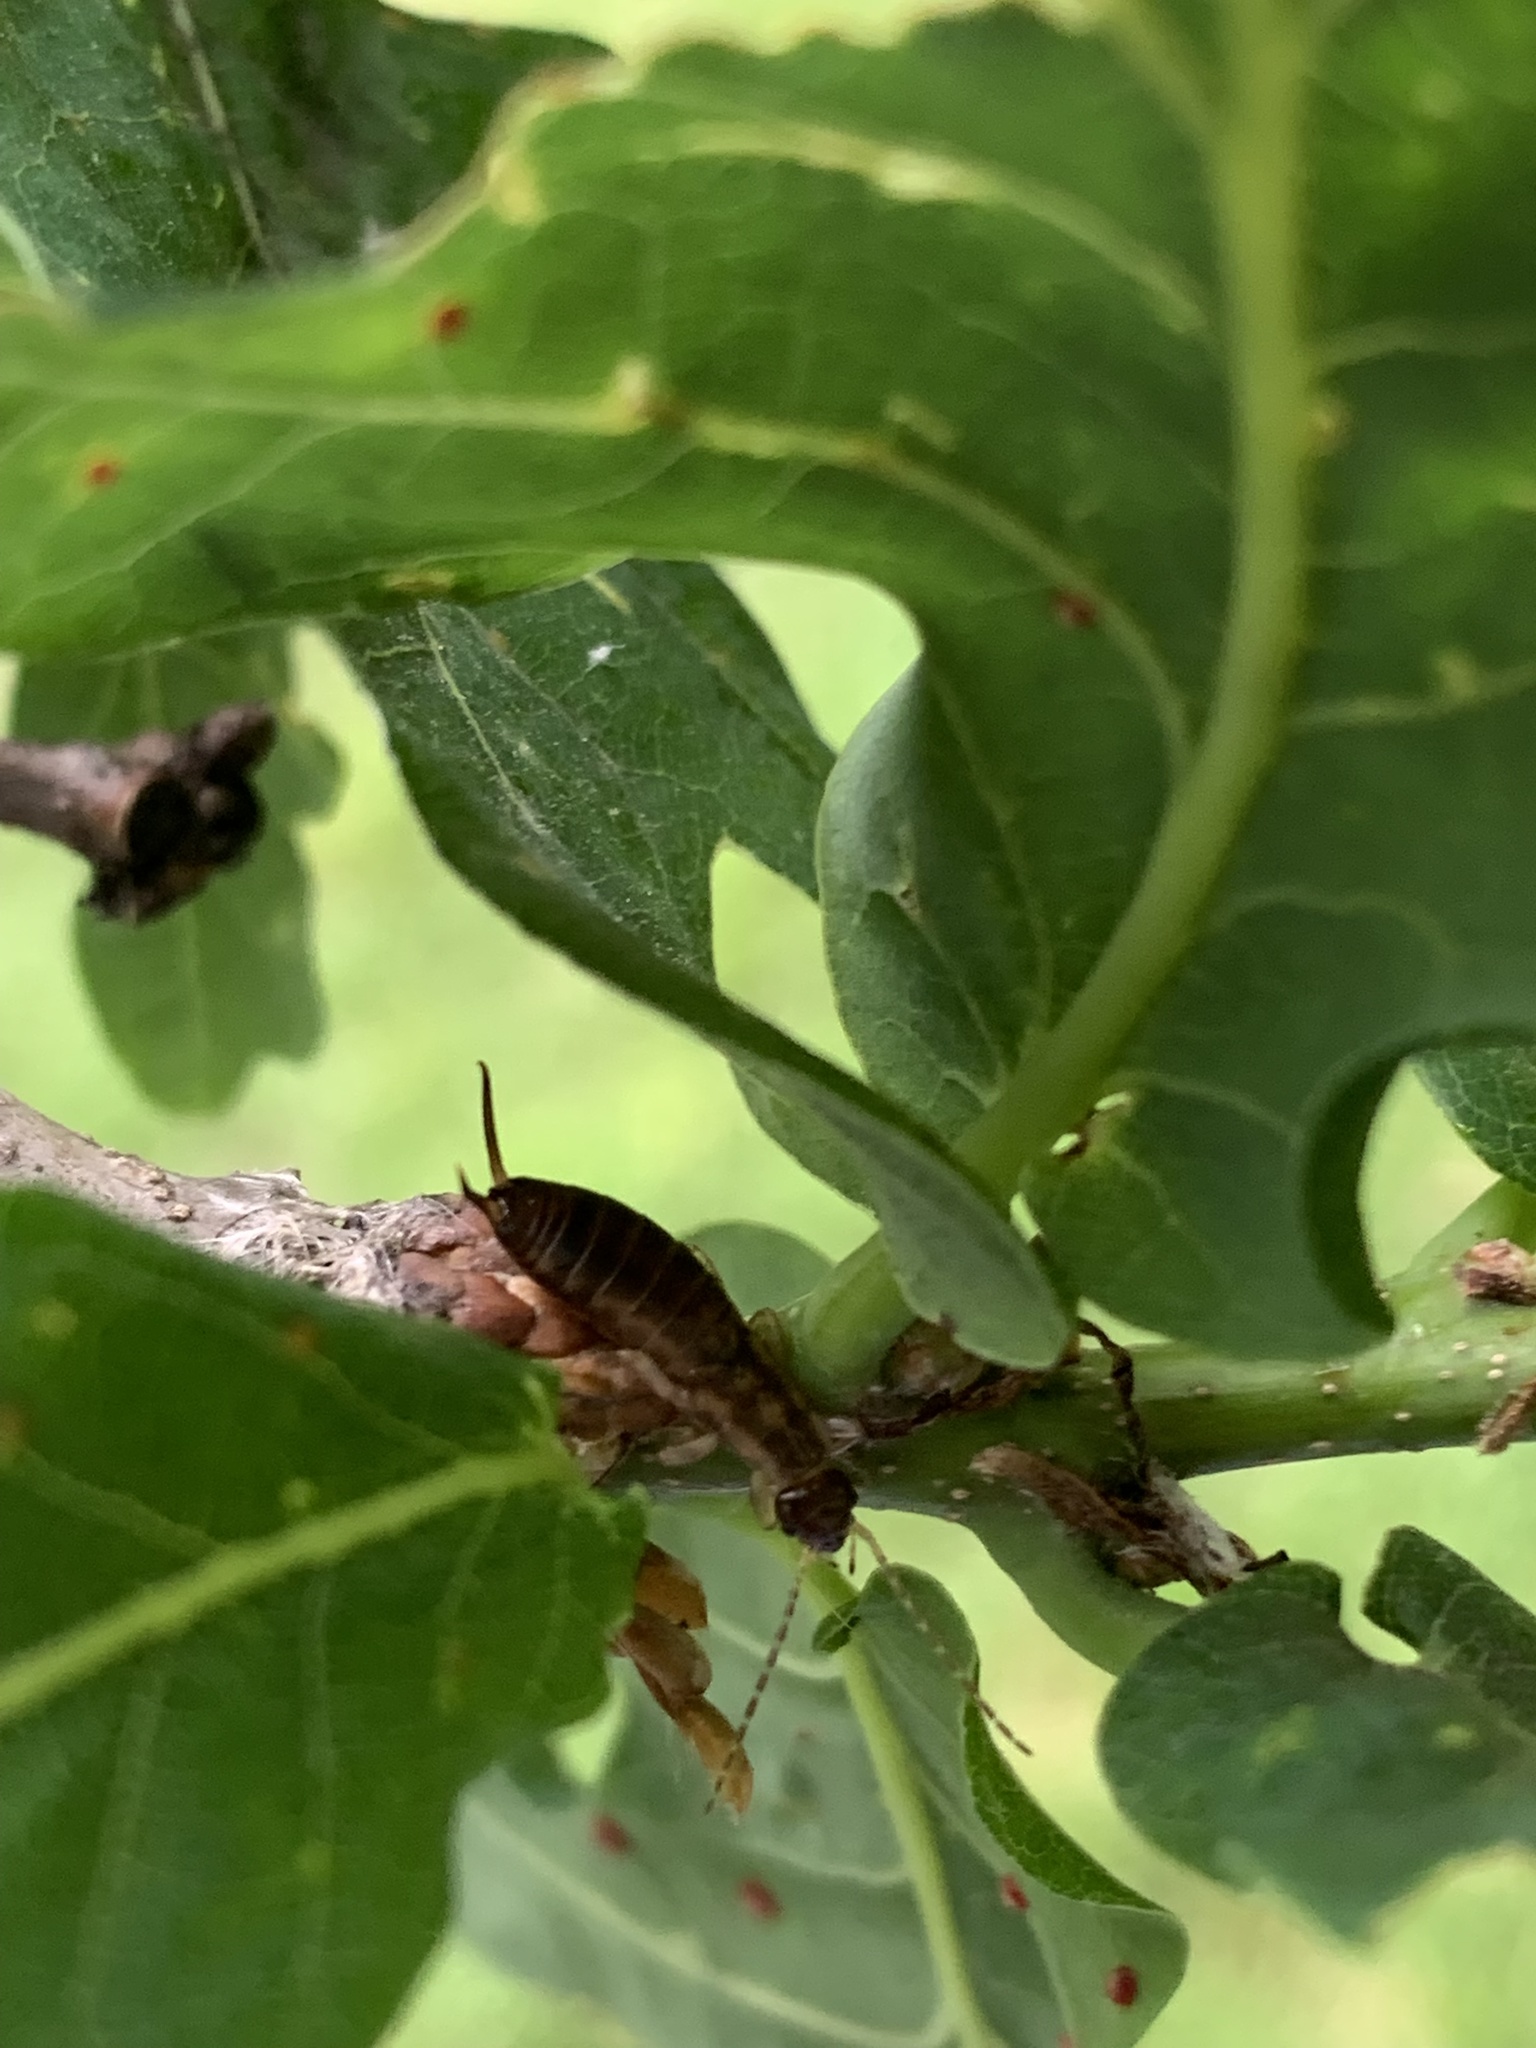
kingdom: Animalia
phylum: Arthropoda
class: Insecta
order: Dermaptera
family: Forficulidae
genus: Forficula
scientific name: Forficula
